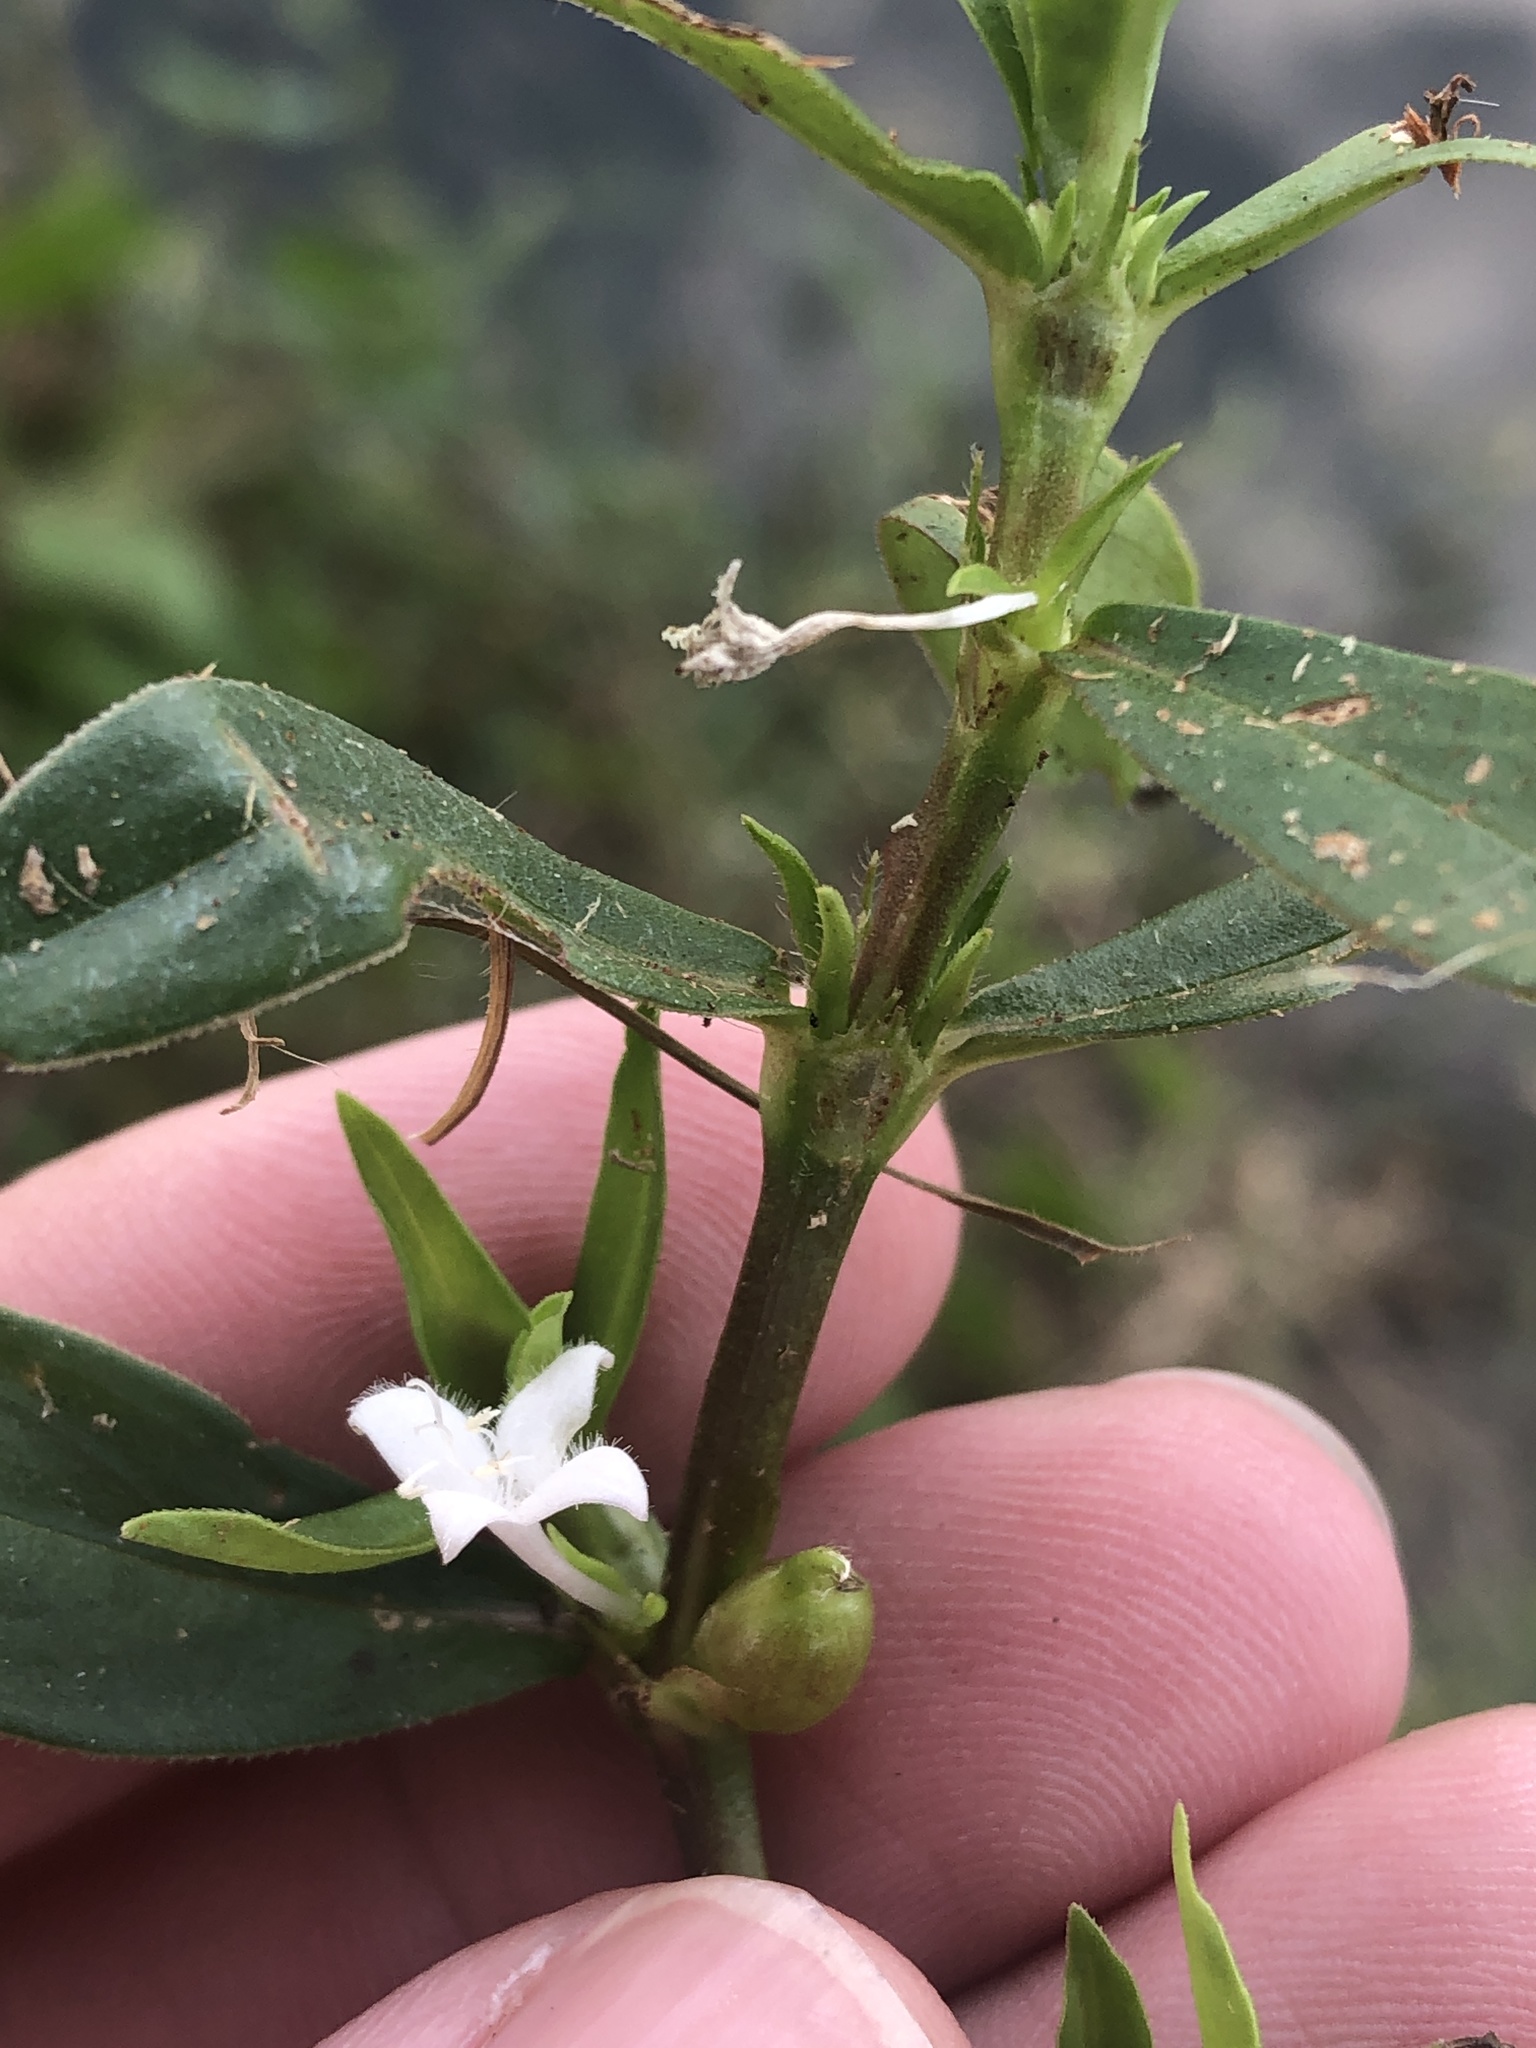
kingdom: Plantae
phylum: Tracheophyta
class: Magnoliopsida
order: Gentianales
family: Rubiaceae
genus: Diodia
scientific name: Diodia virginiana
